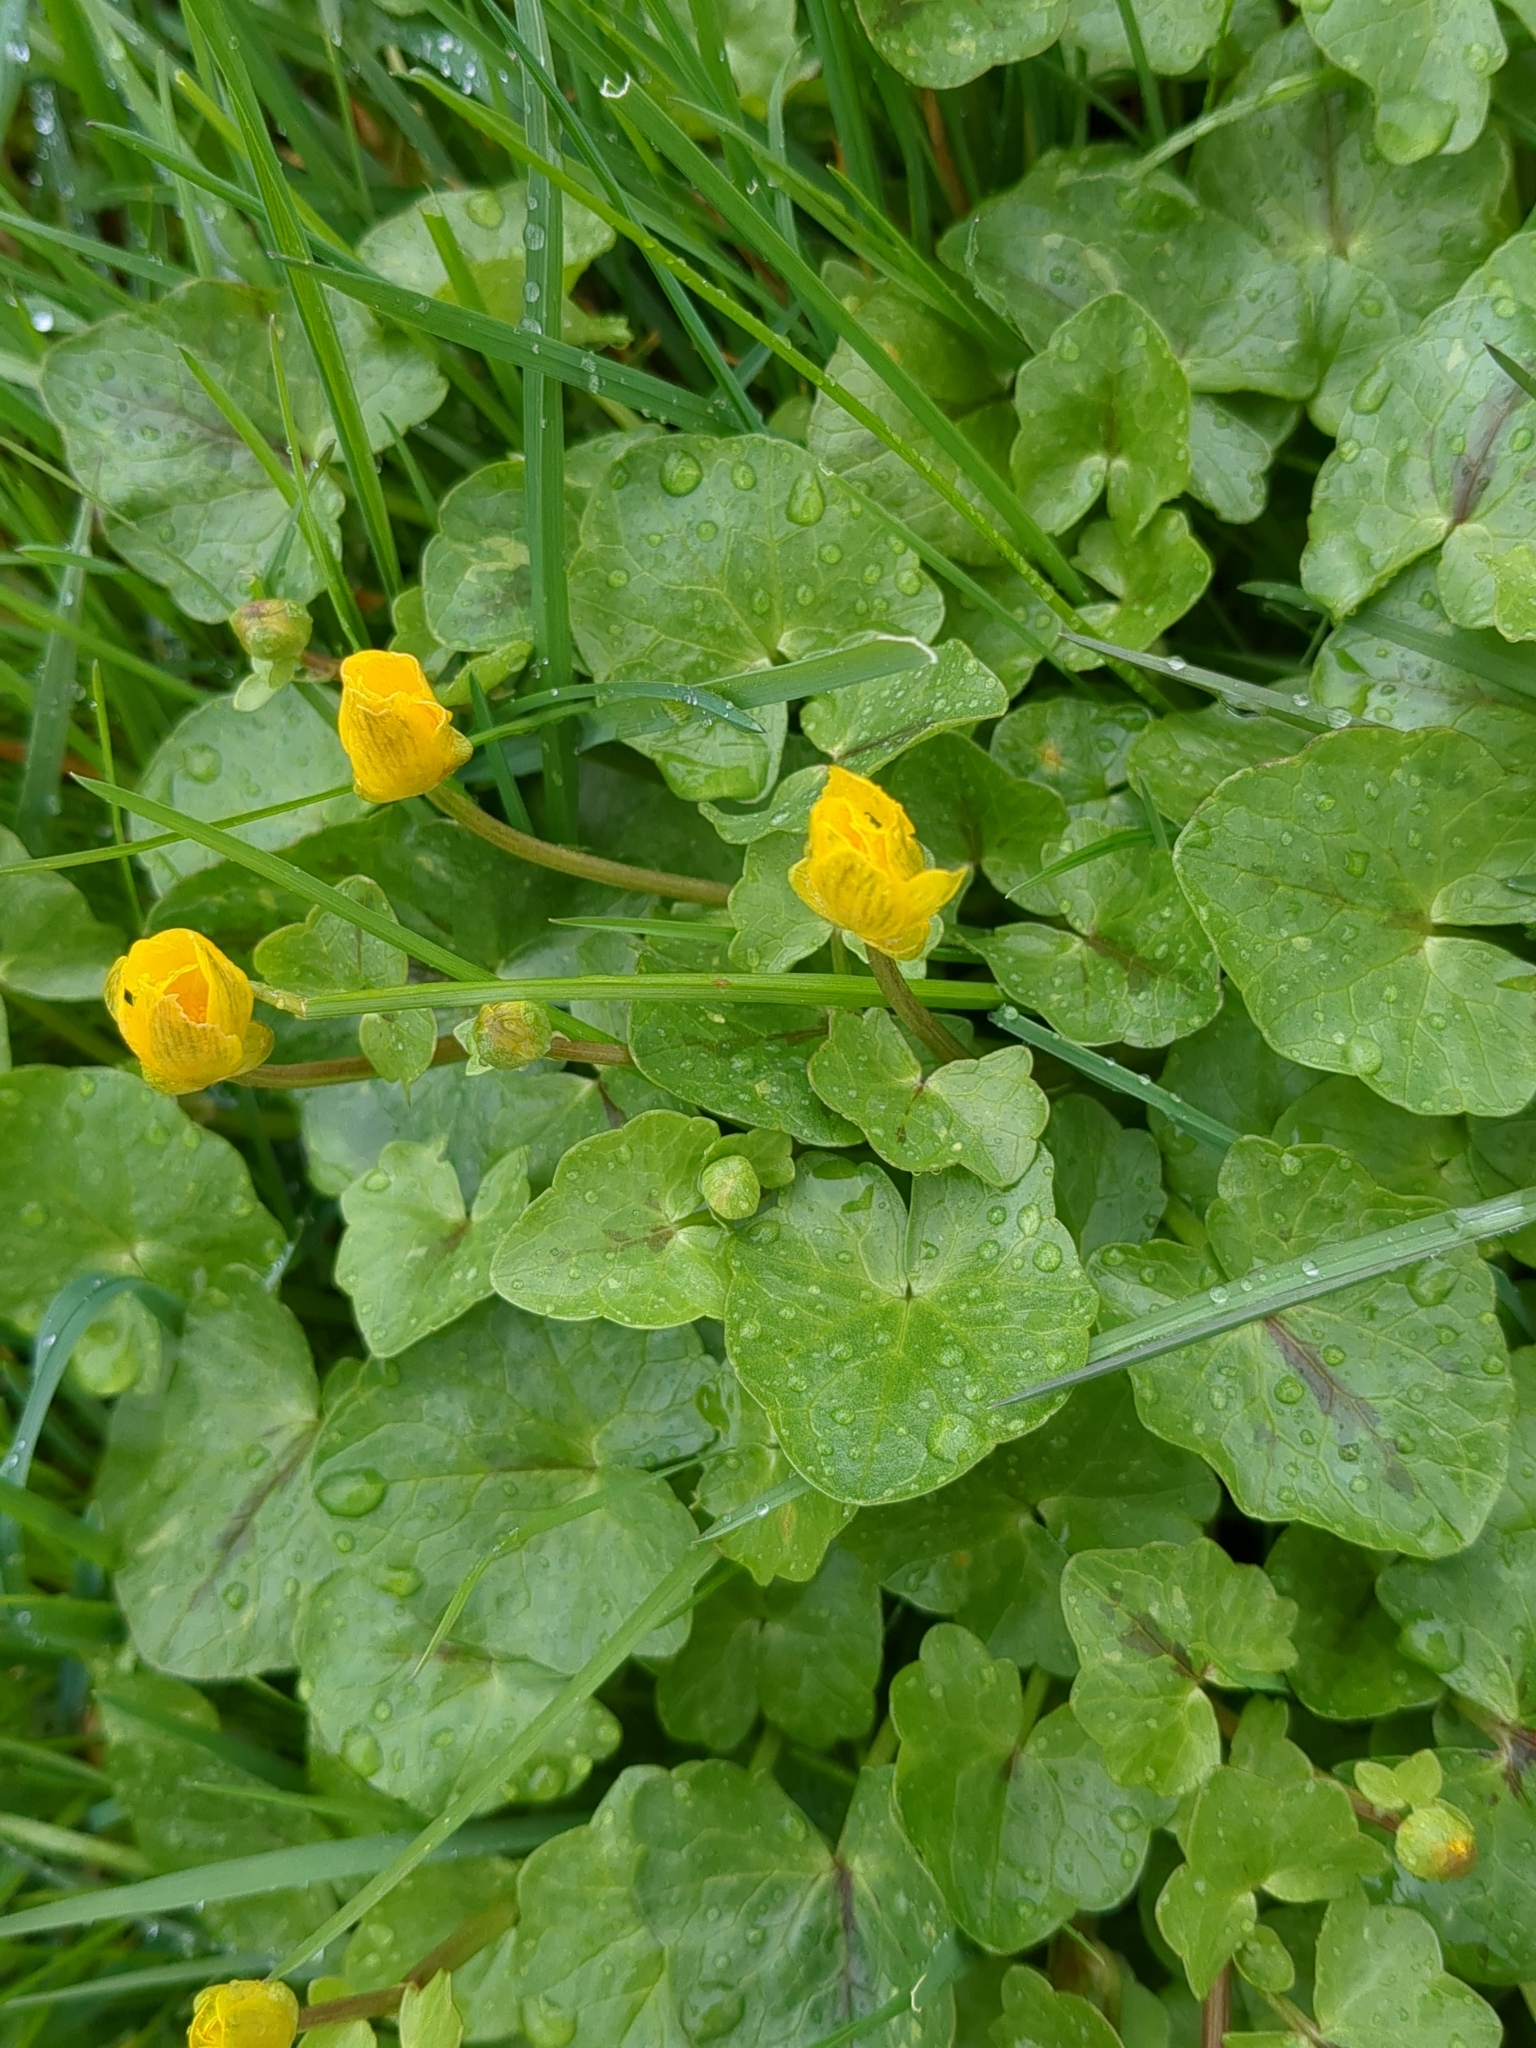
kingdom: Plantae
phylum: Tracheophyta
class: Magnoliopsida
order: Ranunculales
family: Ranunculaceae
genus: Ficaria
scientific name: Ficaria verna
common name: Lesser celandine
